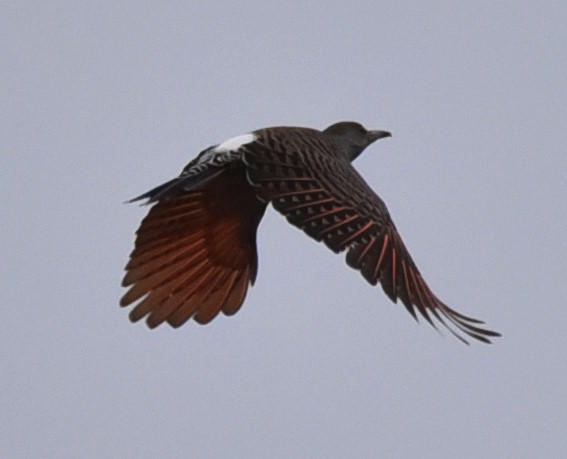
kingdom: Animalia
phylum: Chordata
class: Aves
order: Piciformes
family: Picidae
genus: Colaptes
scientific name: Colaptes auratus
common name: Northern flicker
